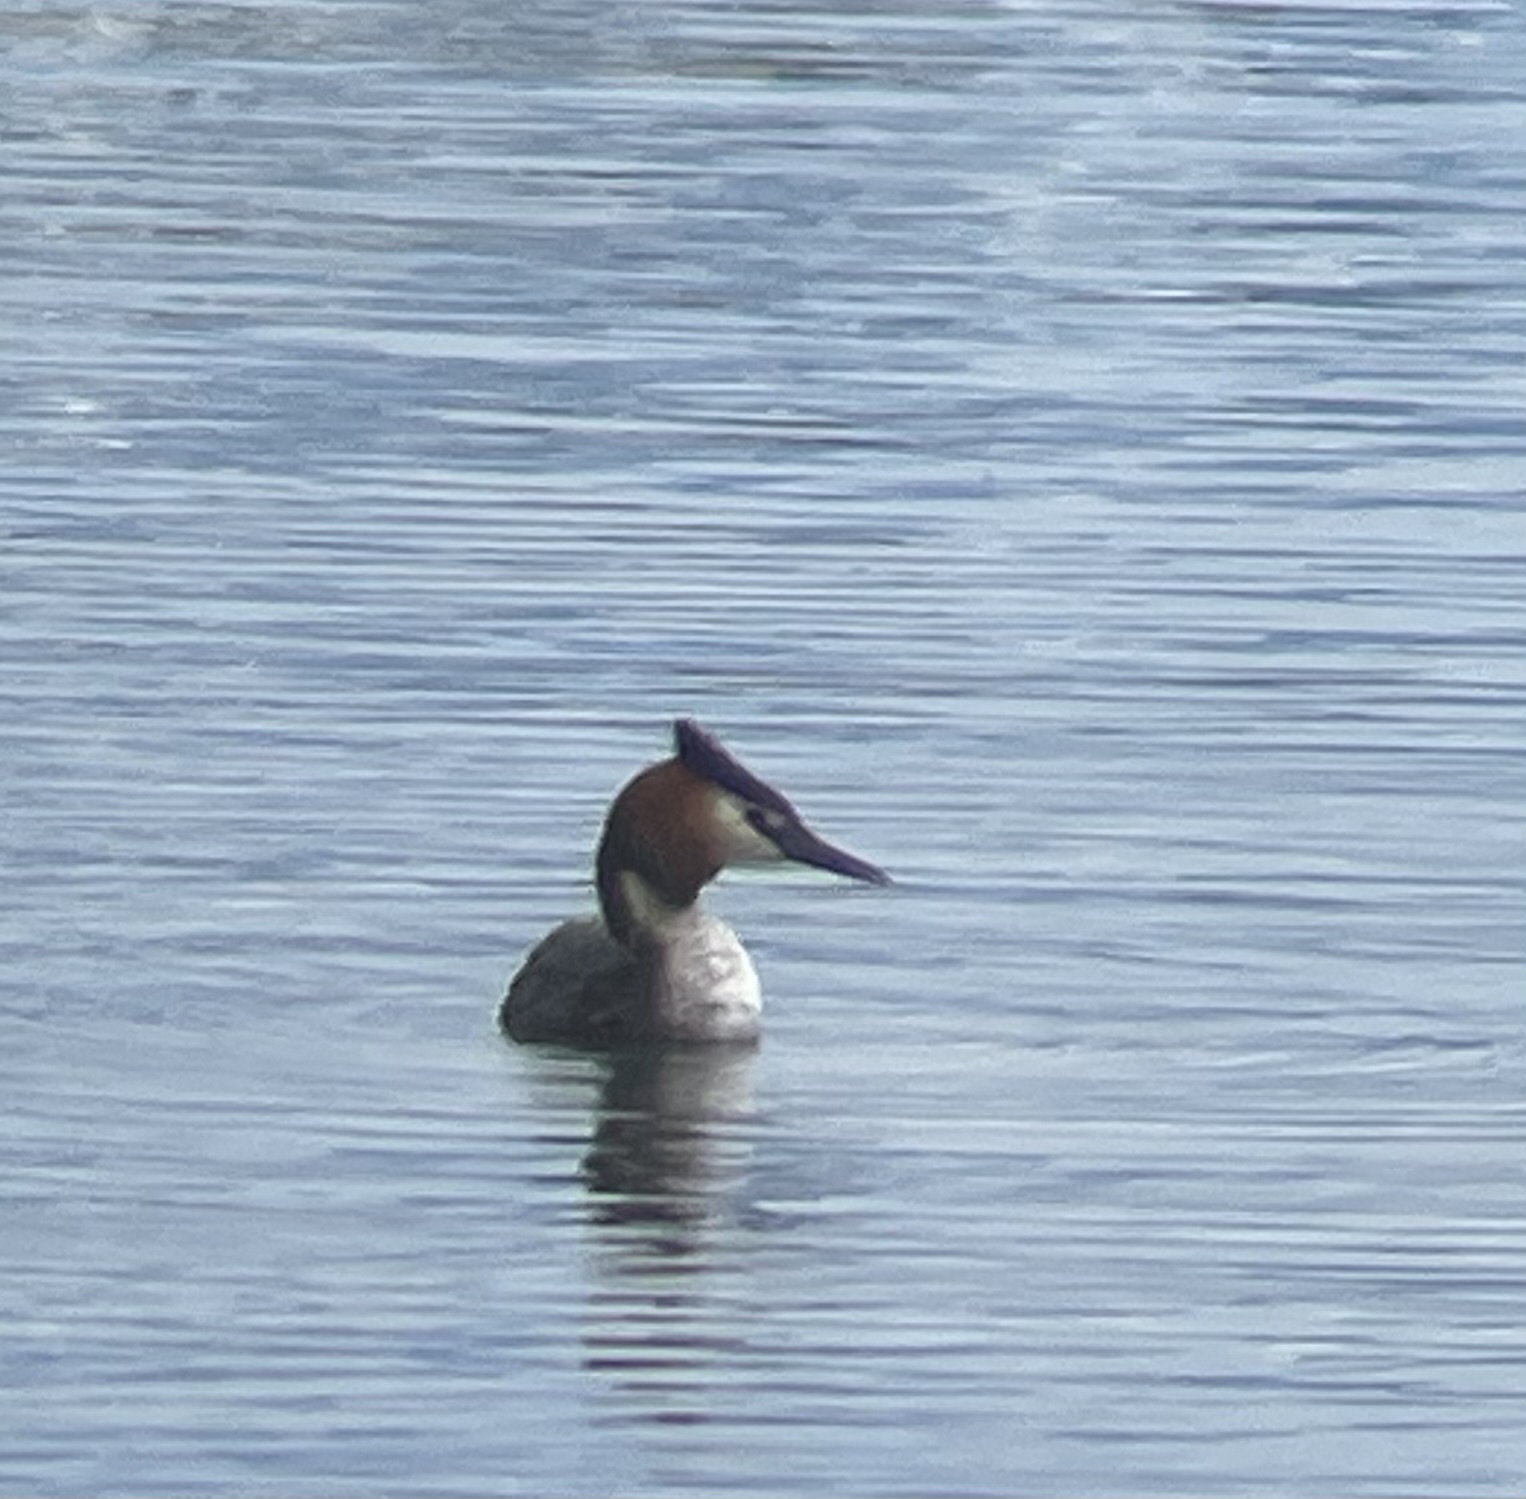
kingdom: Animalia
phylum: Chordata
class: Aves
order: Podicipediformes
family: Podicipedidae
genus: Podiceps
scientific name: Podiceps cristatus
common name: Great crested grebe
